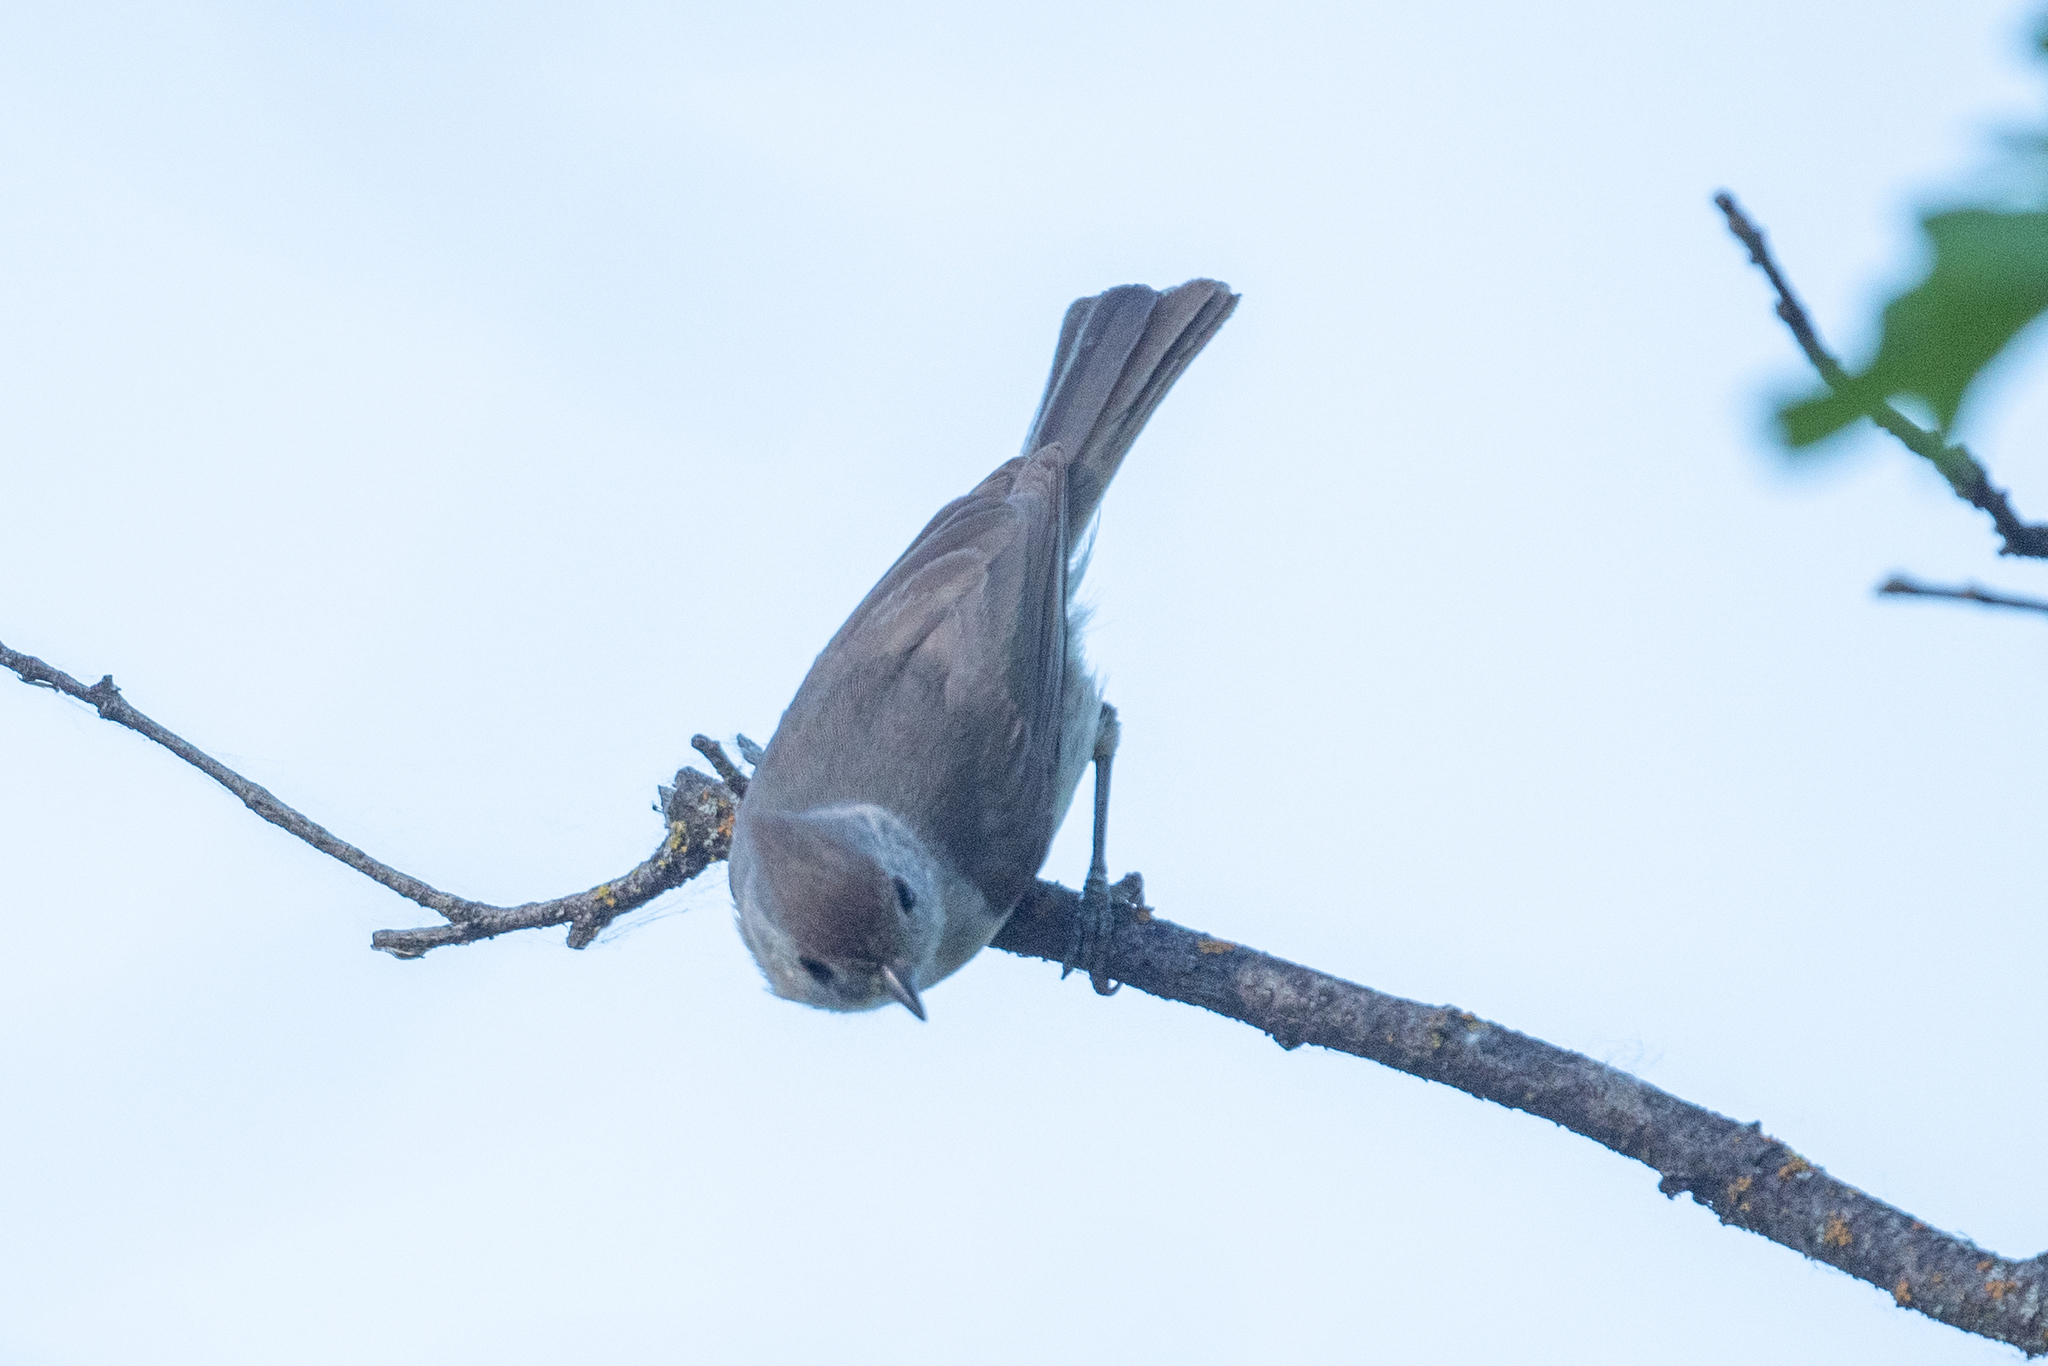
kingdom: Animalia
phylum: Chordata
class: Aves
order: Passeriformes
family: Paridae
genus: Baeolophus
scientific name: Baeolophus inornatus
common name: Oak titmouse
